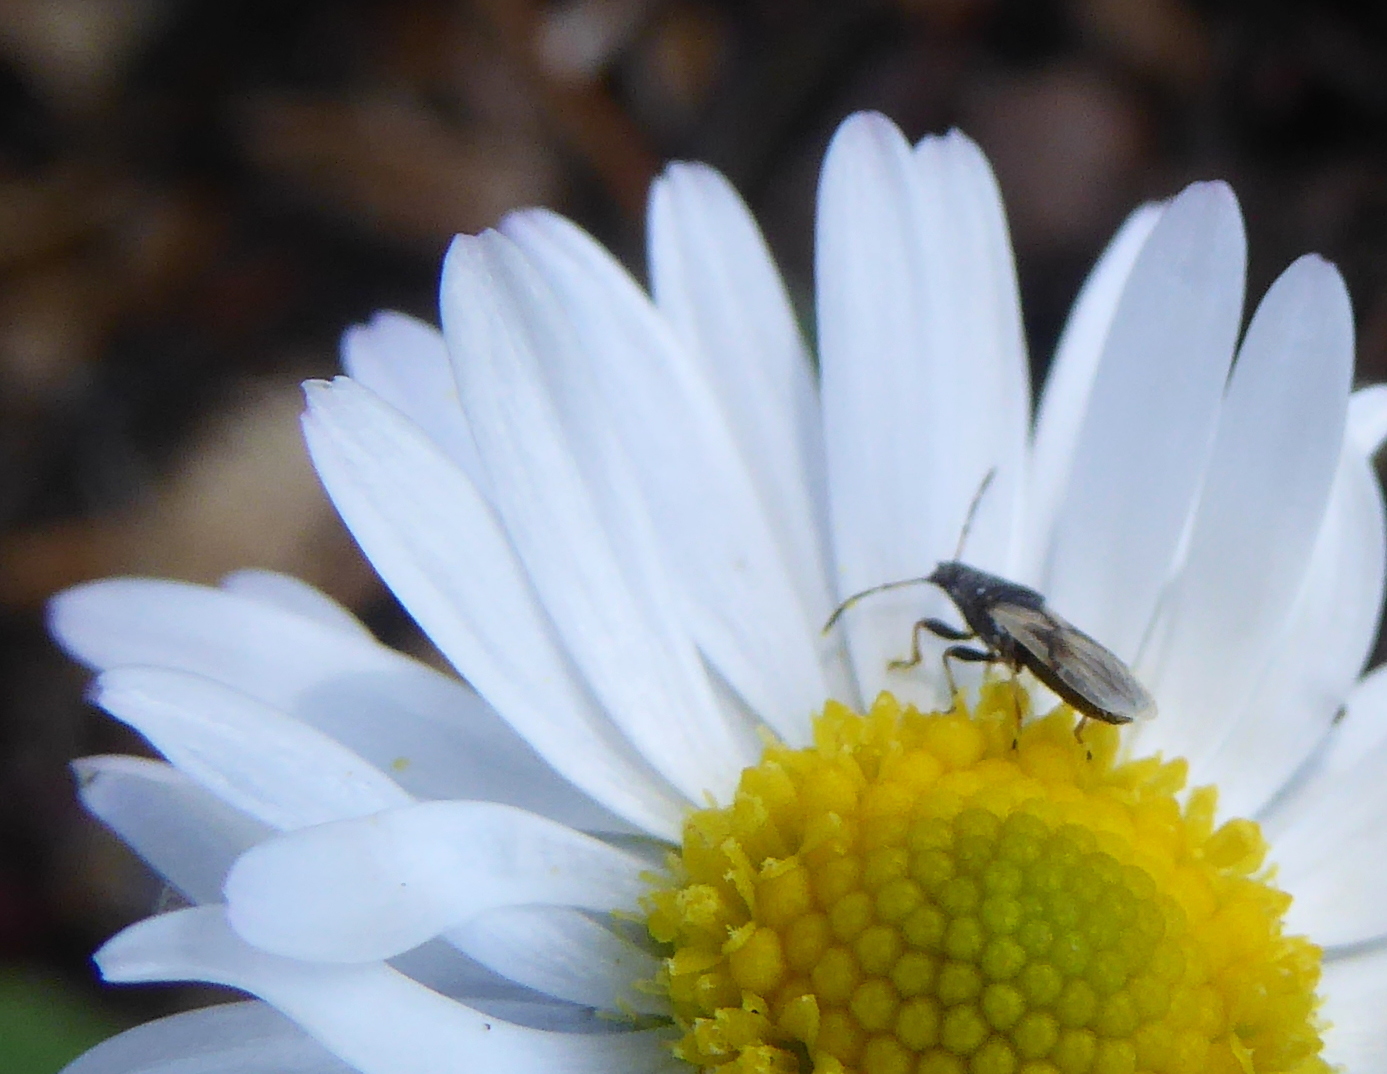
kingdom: Animalia
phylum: Arthropoda
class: Insecta
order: Hemiptera
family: Oxycarenidae
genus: Metopoplax
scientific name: Metopoplax ditomoides
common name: Seed bug
